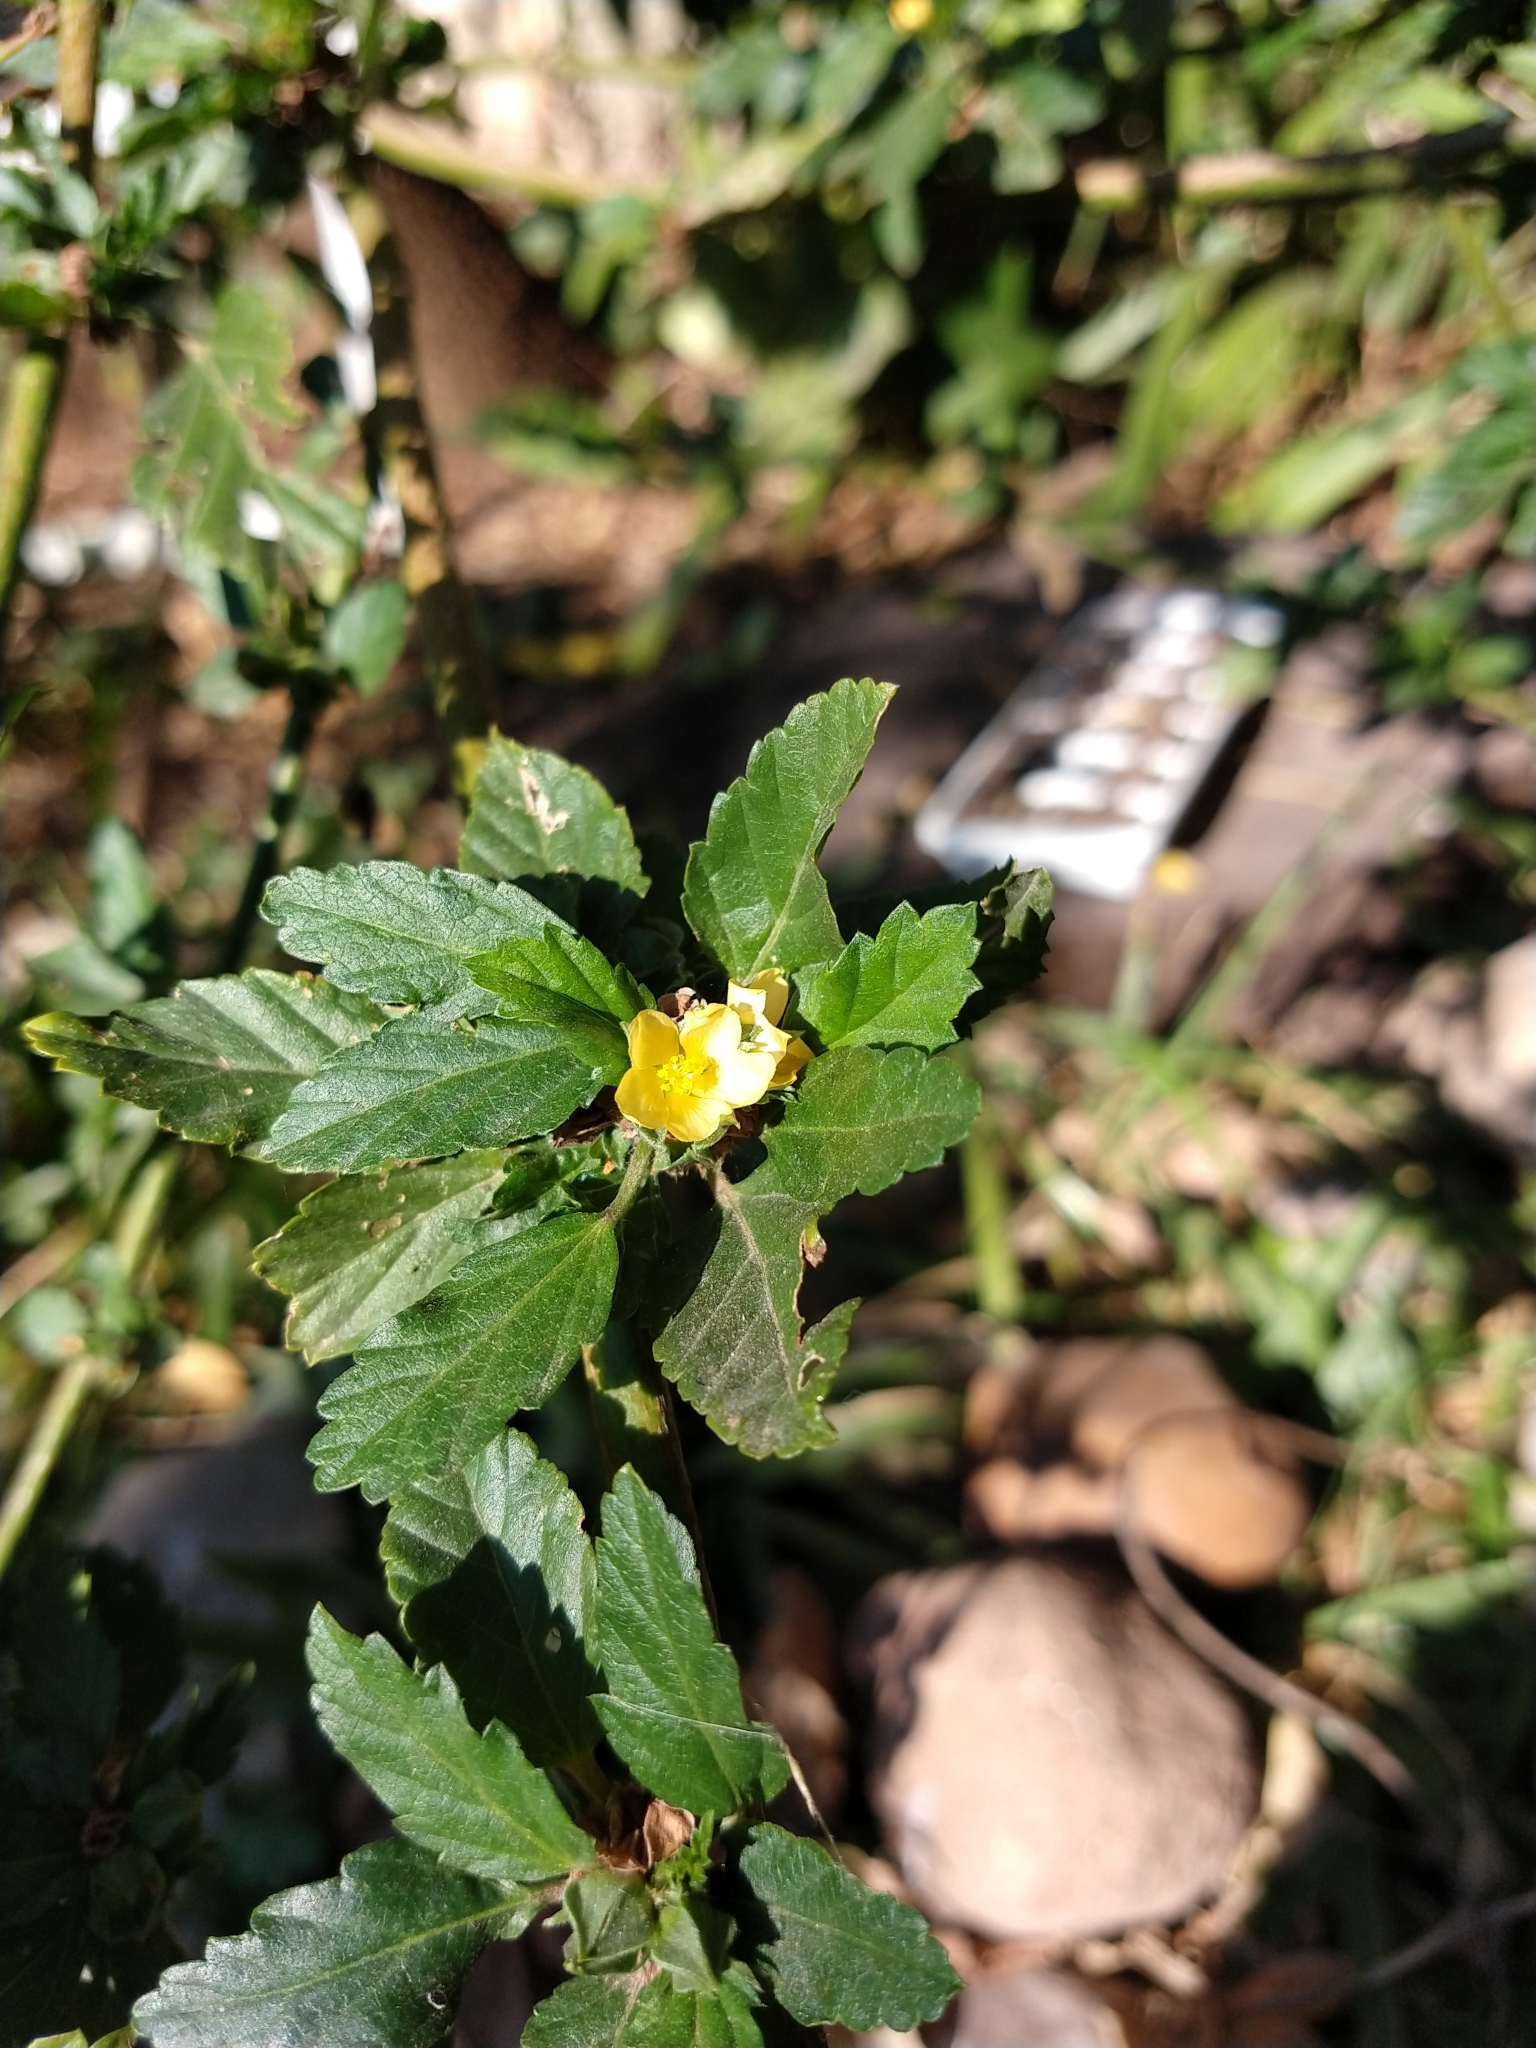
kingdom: Plantae
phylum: Tracheophyta
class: Magnoliopsida
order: Malvales
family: Malvaceae
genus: Malvastrum
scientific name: Malvastrum coromandelianum
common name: Threelobe false mallow
